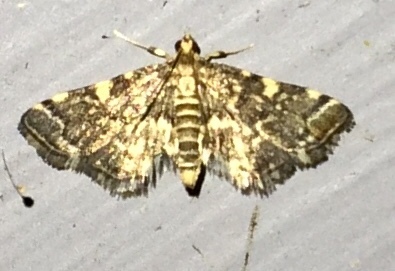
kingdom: Animalia
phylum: Arthropoda
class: Insecta
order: Lepidoptera
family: Crambidae
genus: Anageshna
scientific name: Anageshna primordialis
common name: Yellow-spotted webworm moth
